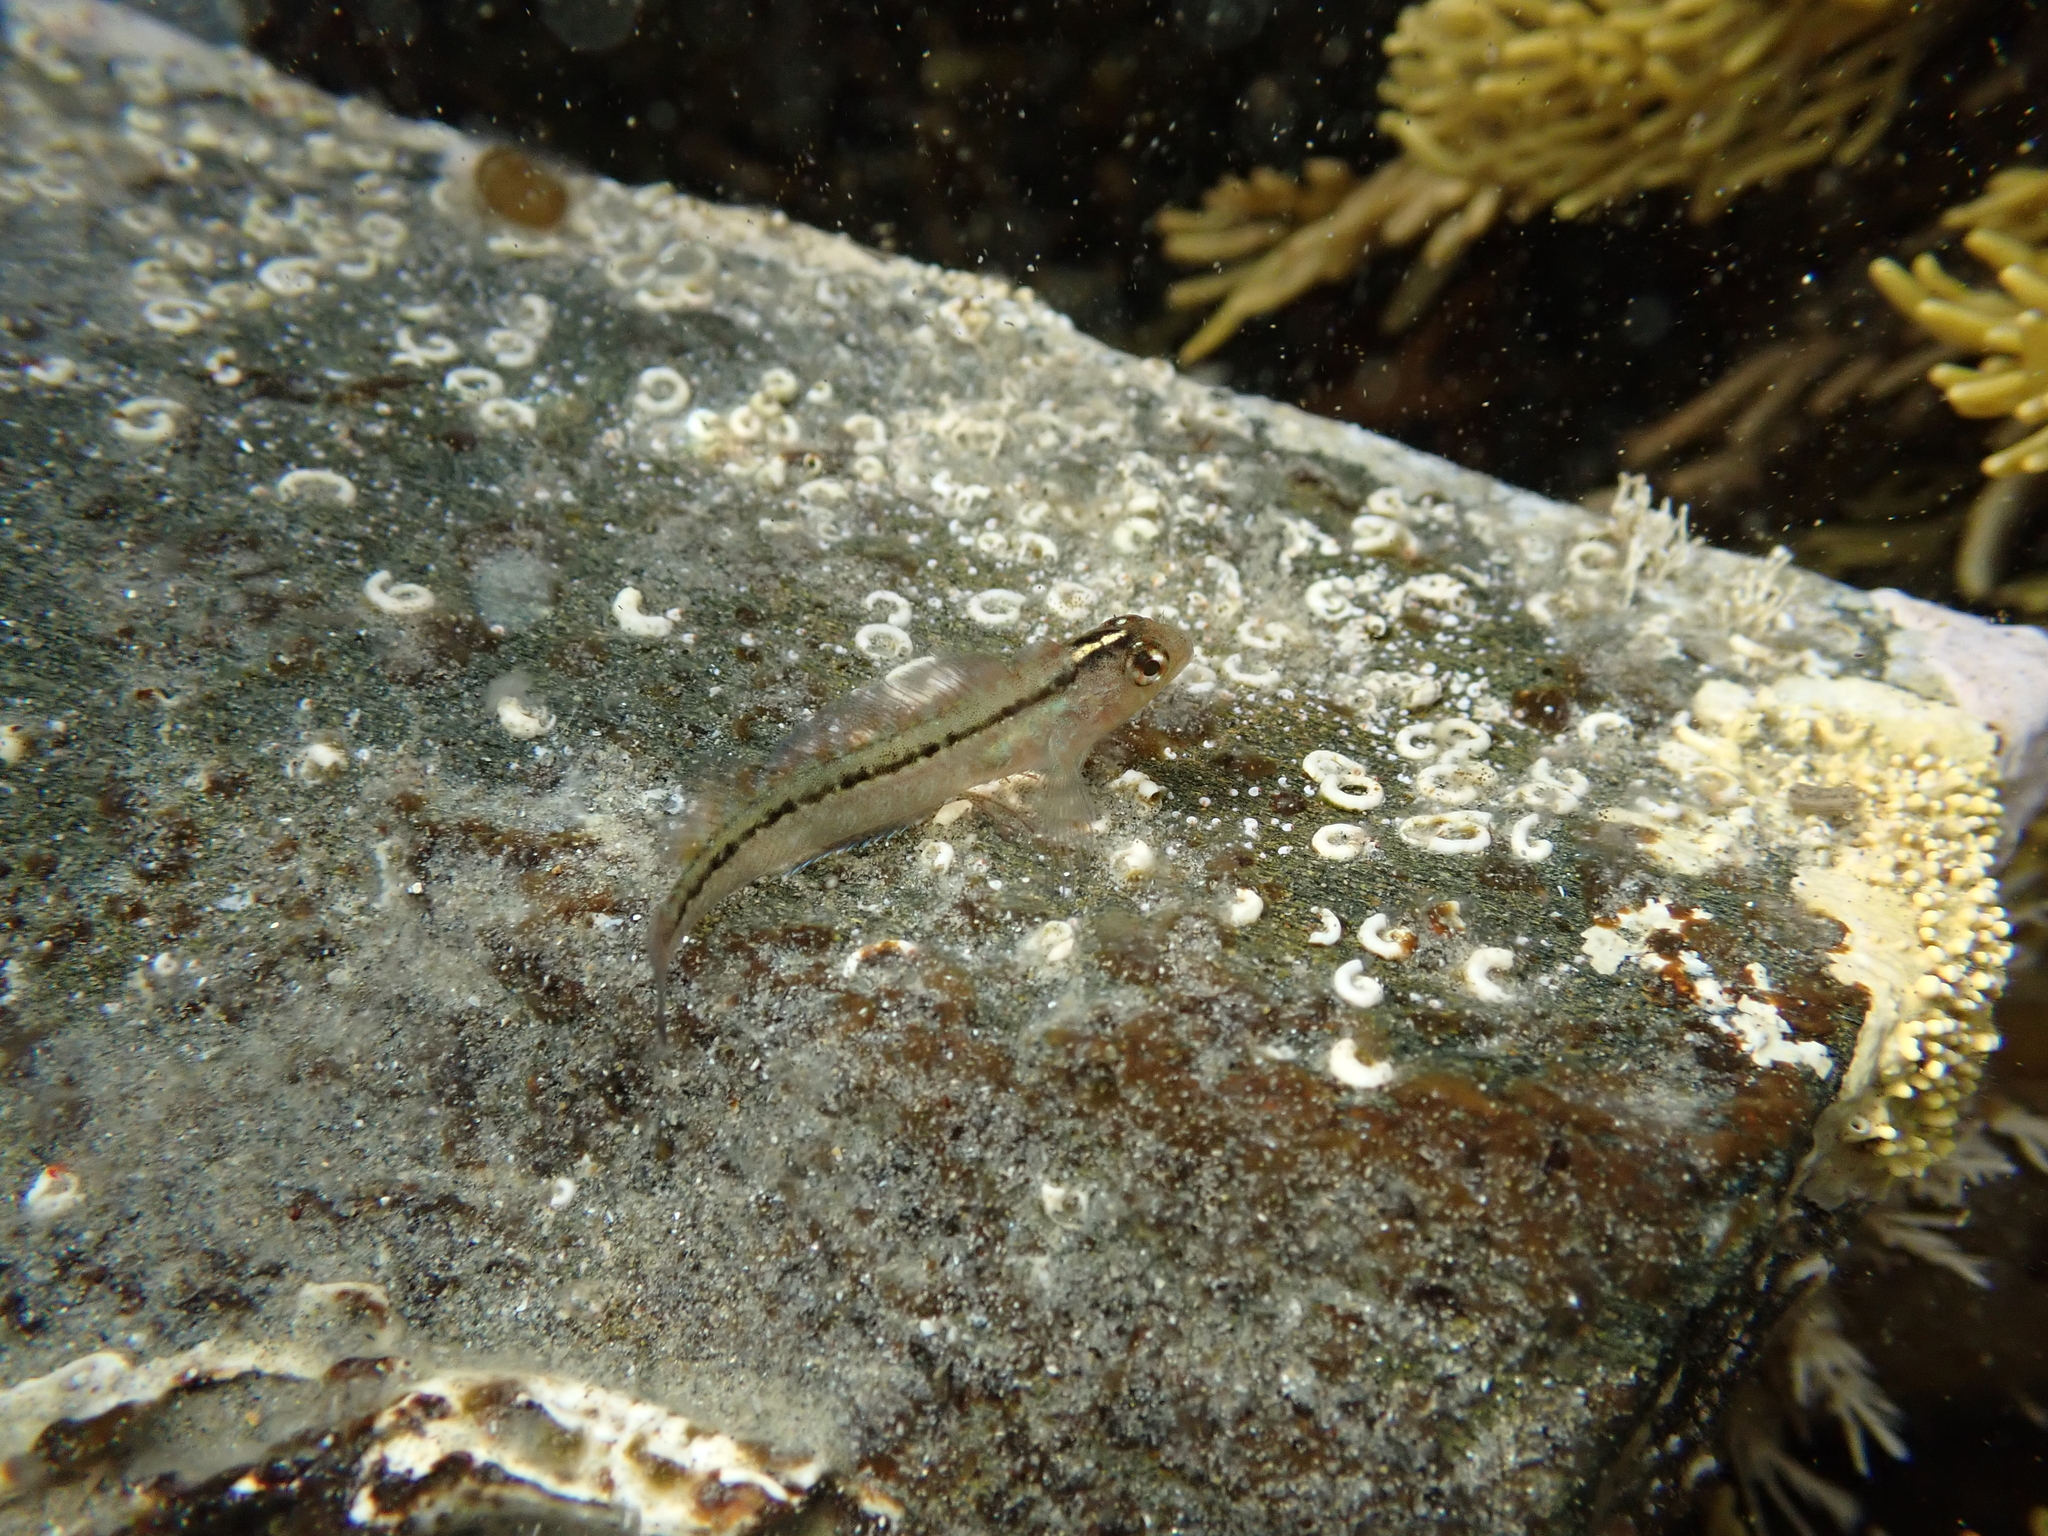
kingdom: Animalia
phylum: Chordata
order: Perciformes
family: Tripterygiidae
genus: Forsterygion
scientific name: Forsterygion lapillum
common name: Common triplefin
